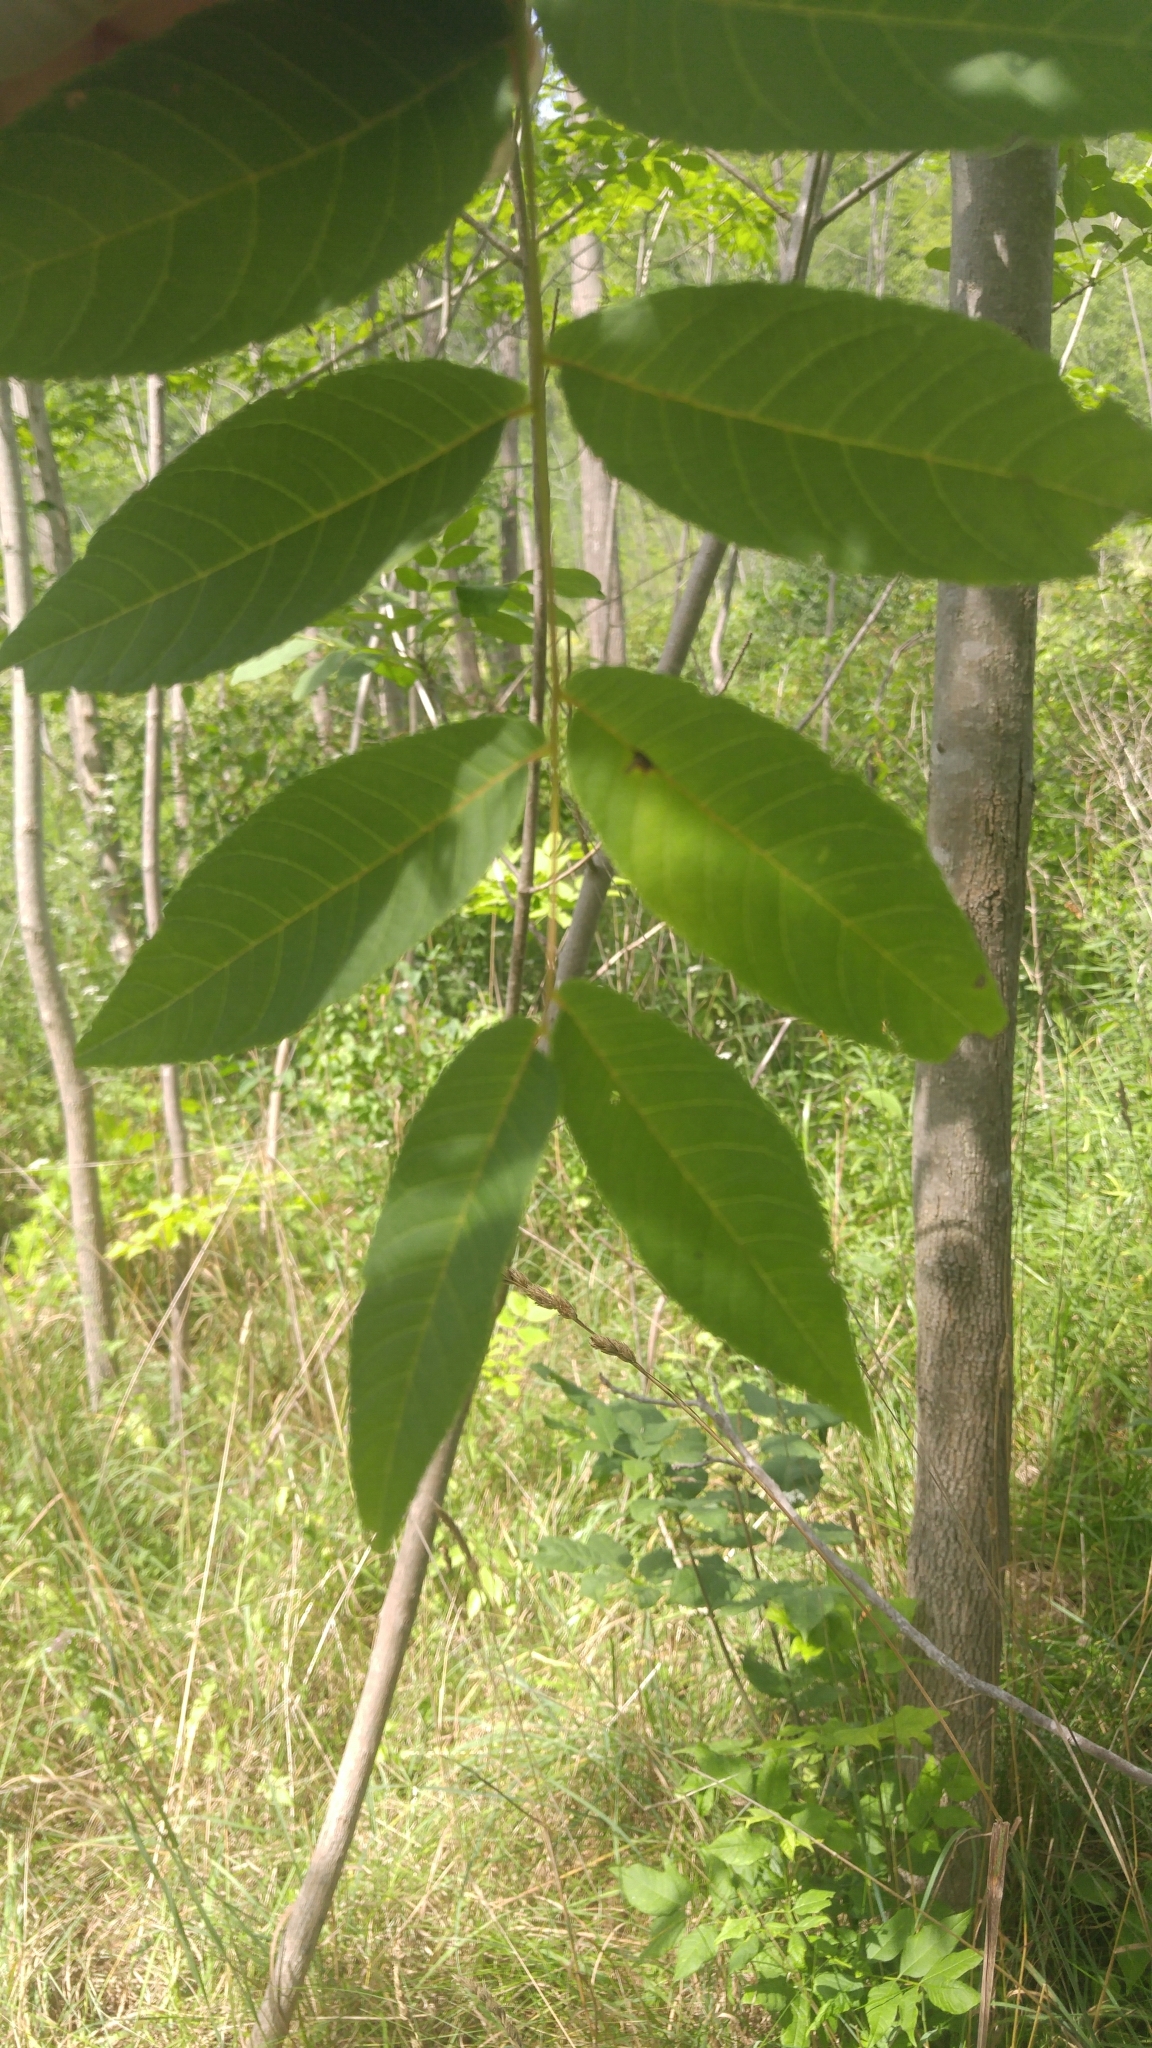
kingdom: Plantae
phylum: Tracheophyta
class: Magnoliopsida
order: Fagales
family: Juglandaceae
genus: Juglans
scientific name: Juglans nigra
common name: Black walnut
